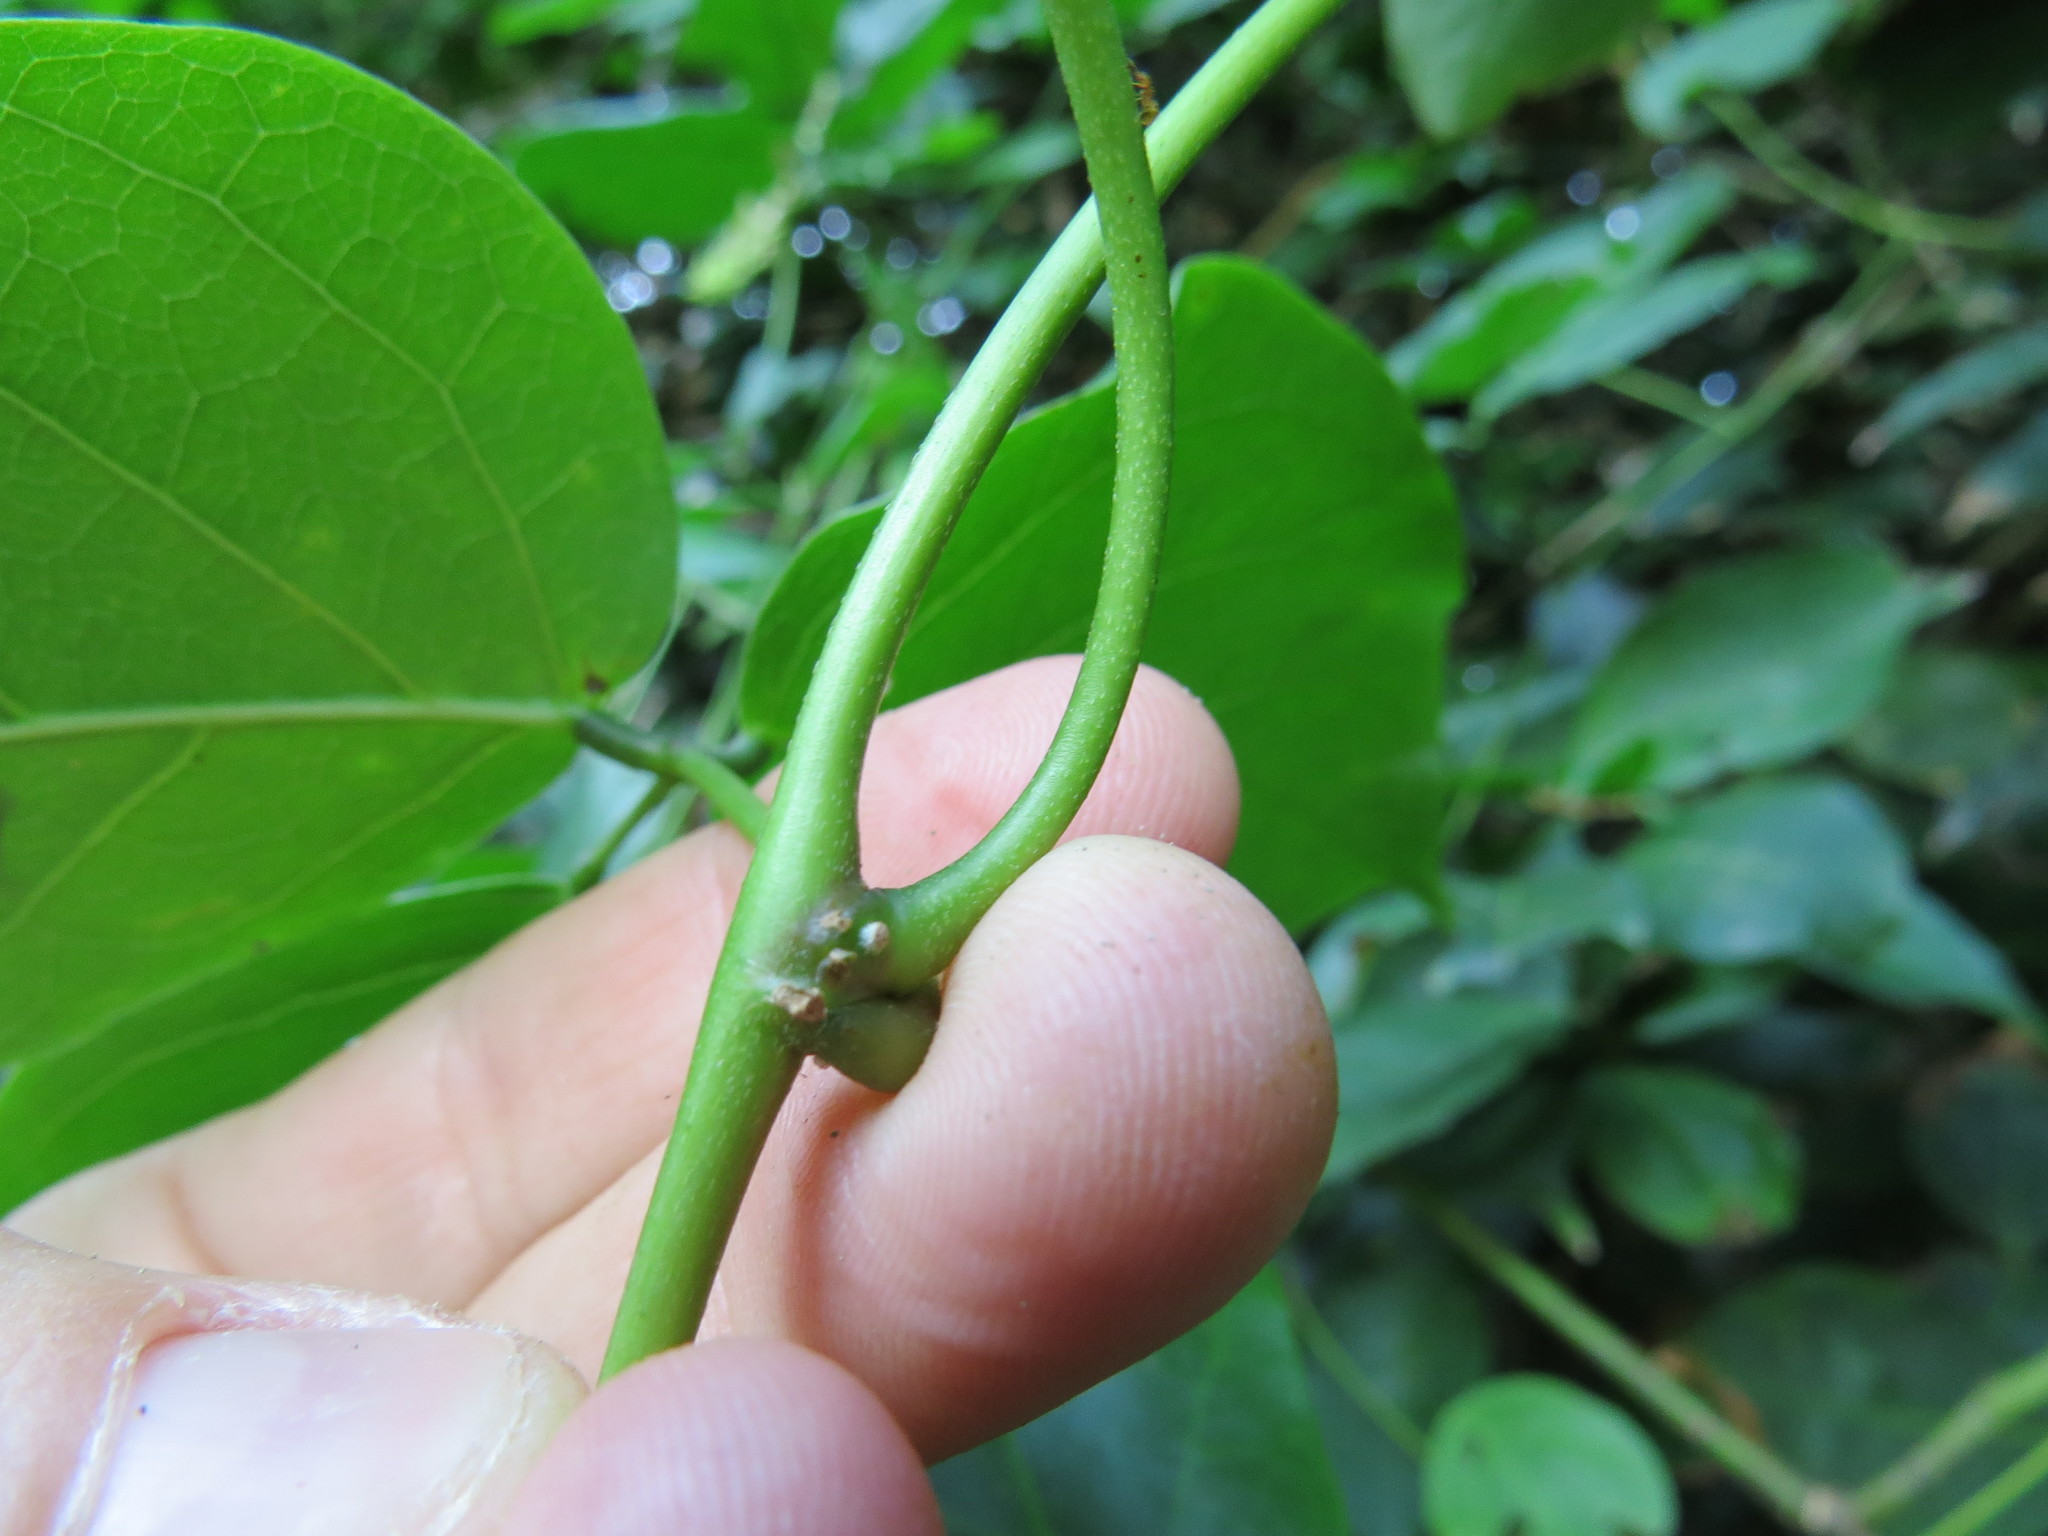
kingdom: Plantae
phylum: Tracheophyta
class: Magnoliopsida
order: Fabales
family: Fabaceae
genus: Canavalia
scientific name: Canavalia parviflora
